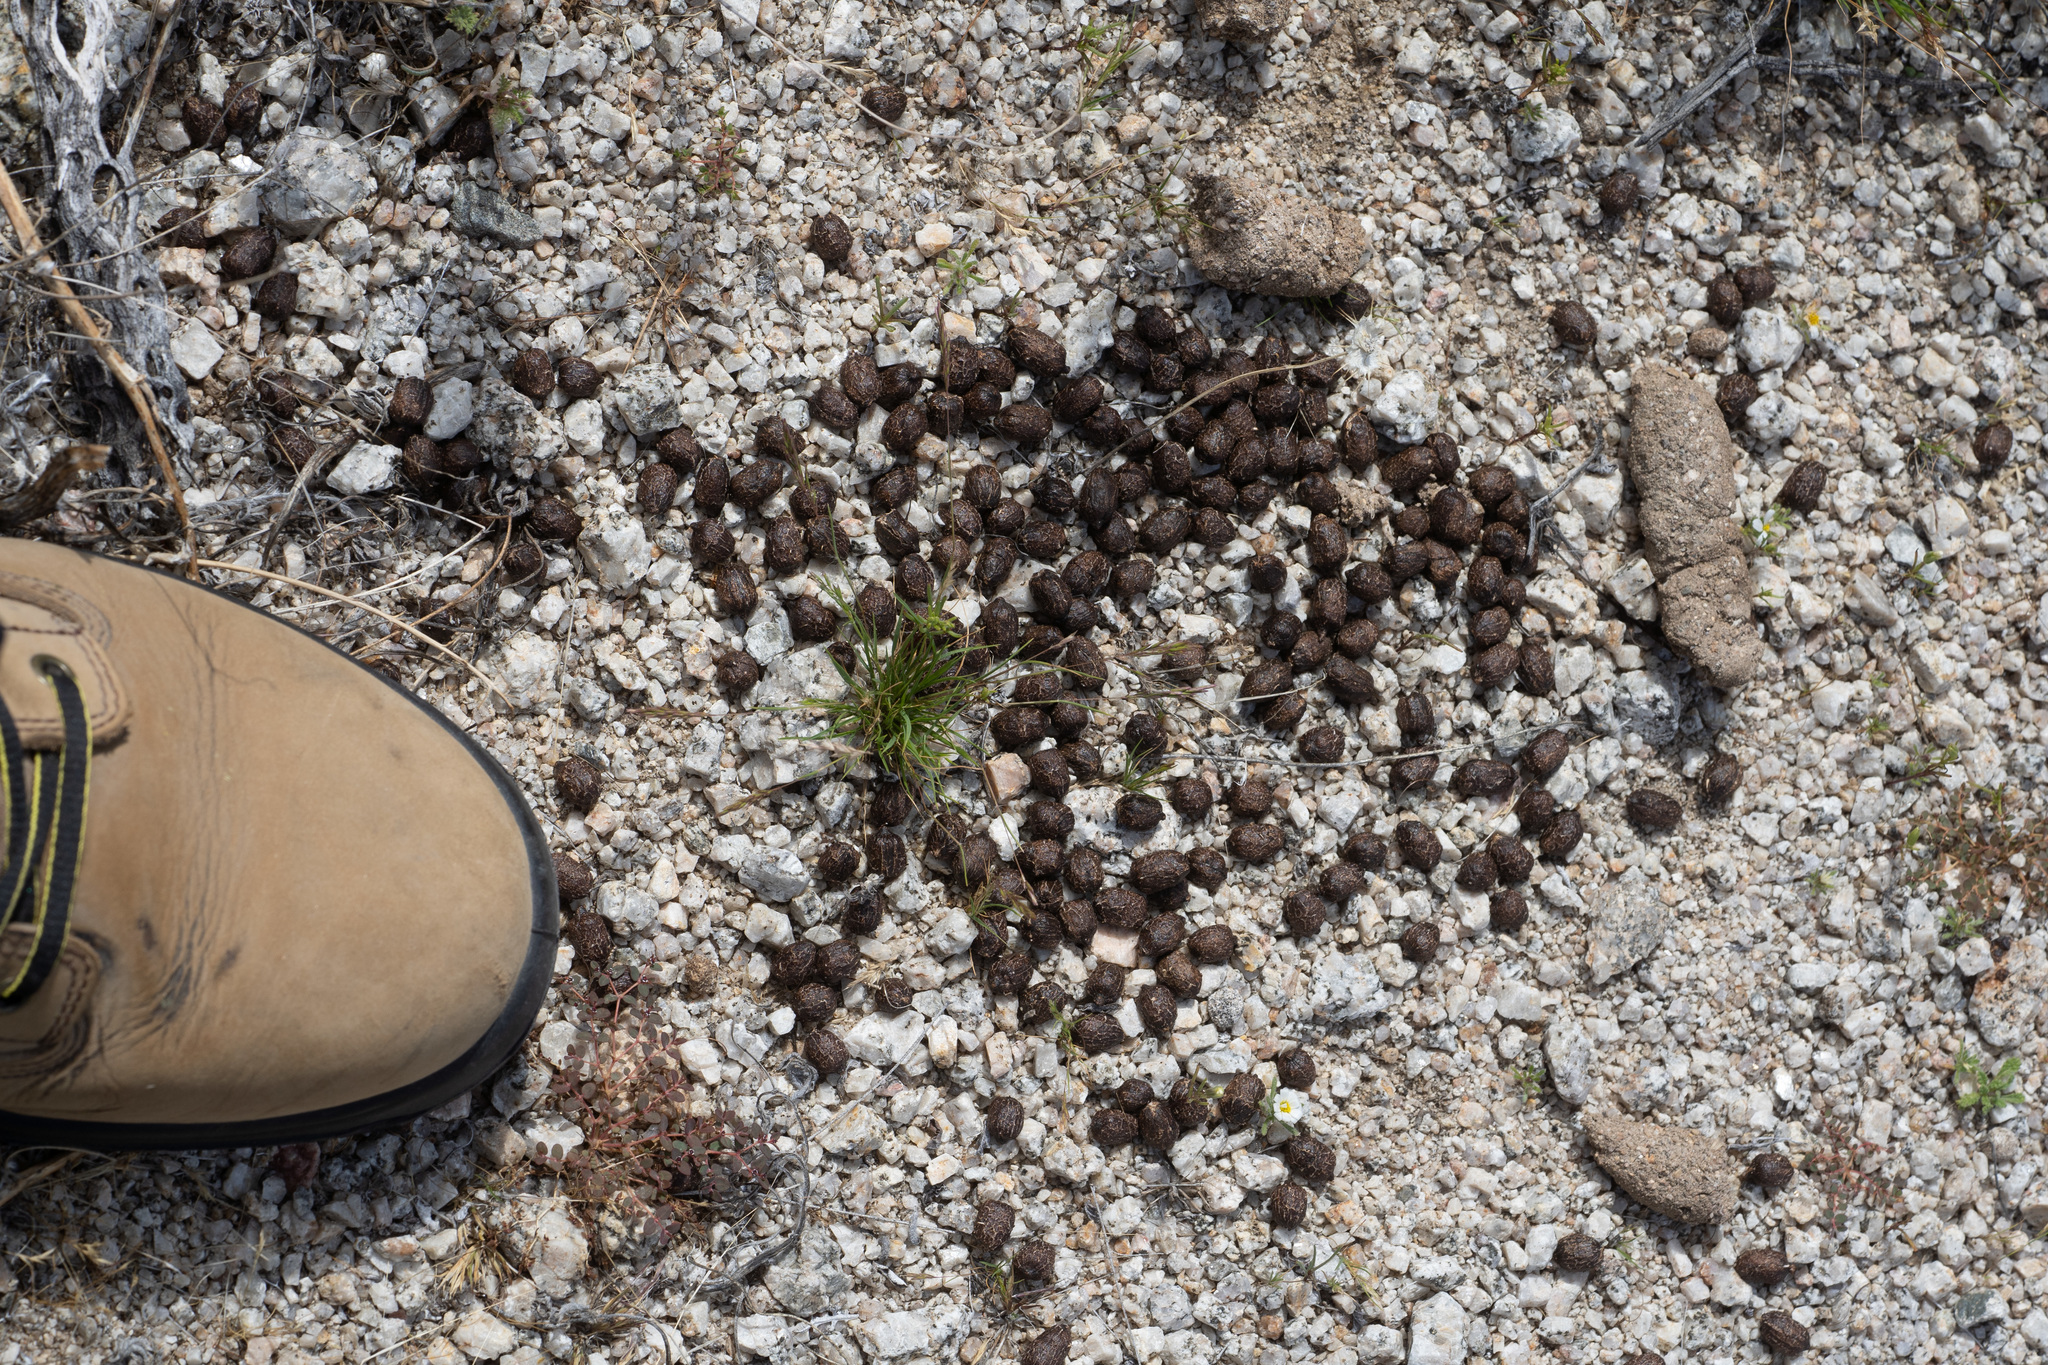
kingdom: Animalia
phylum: Chordata
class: Mammalia
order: Artiodactyla
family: Cervidae
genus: Odocoileus
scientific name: Odocoileus hemionus
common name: Mule deer
